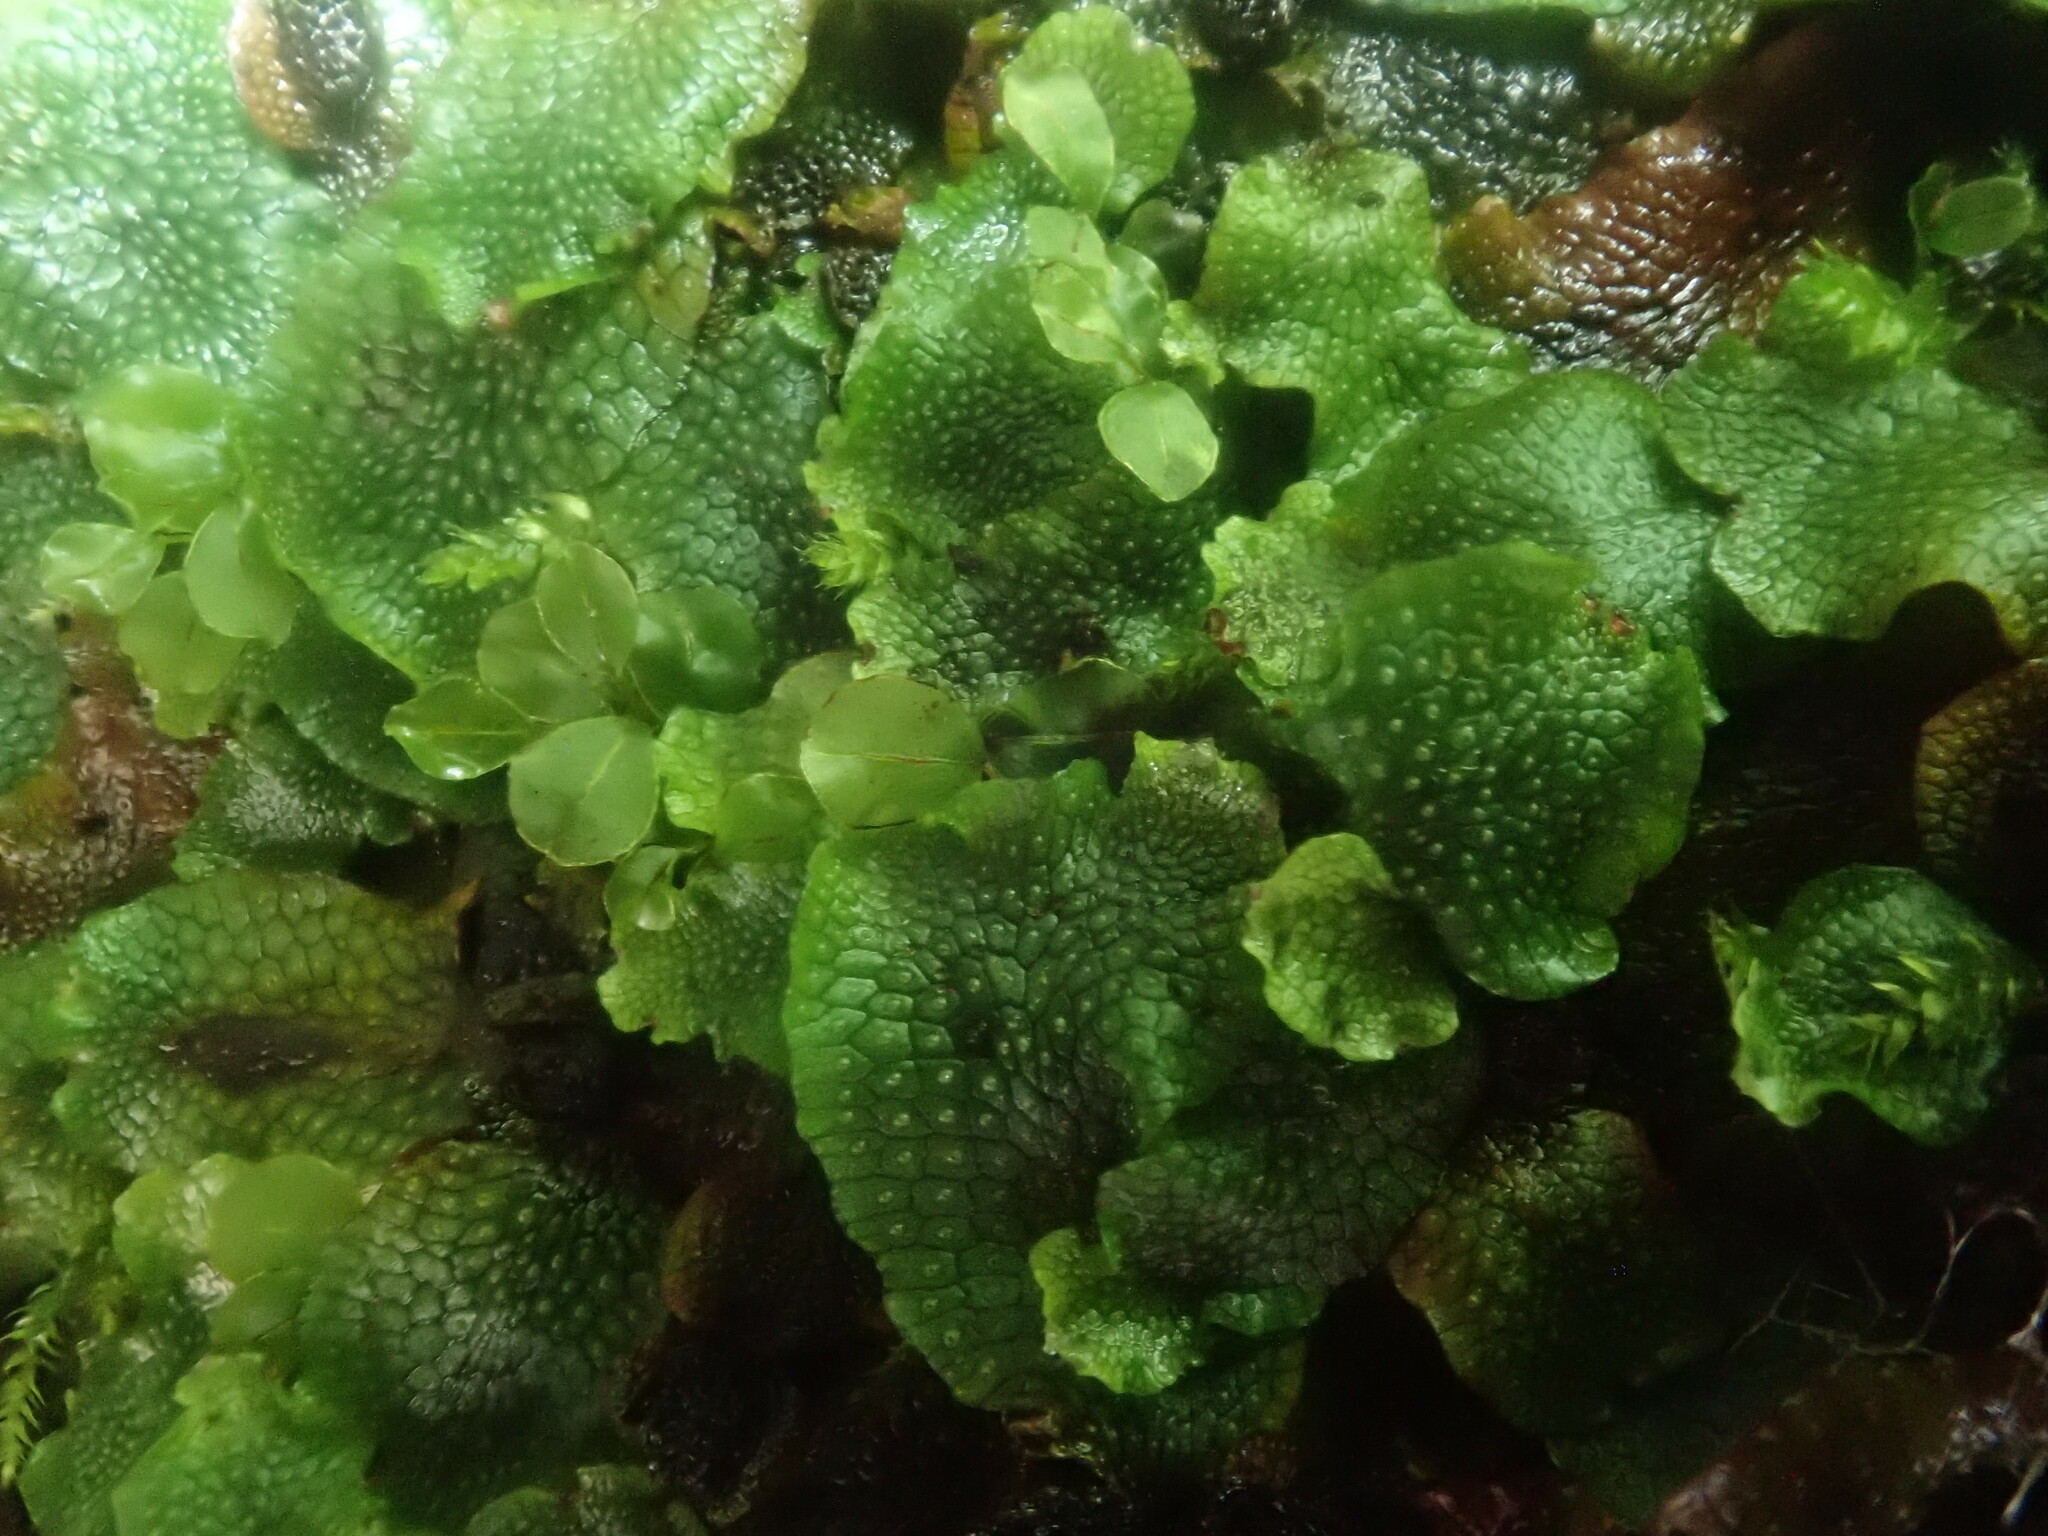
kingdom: Plantae
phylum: Marchantiophyta
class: Marchantiopsida
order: Marchantiales
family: Conocephalaceae
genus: Conocephalum
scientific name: Conocephalum salebrosum
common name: Cat-tongue liverwort
